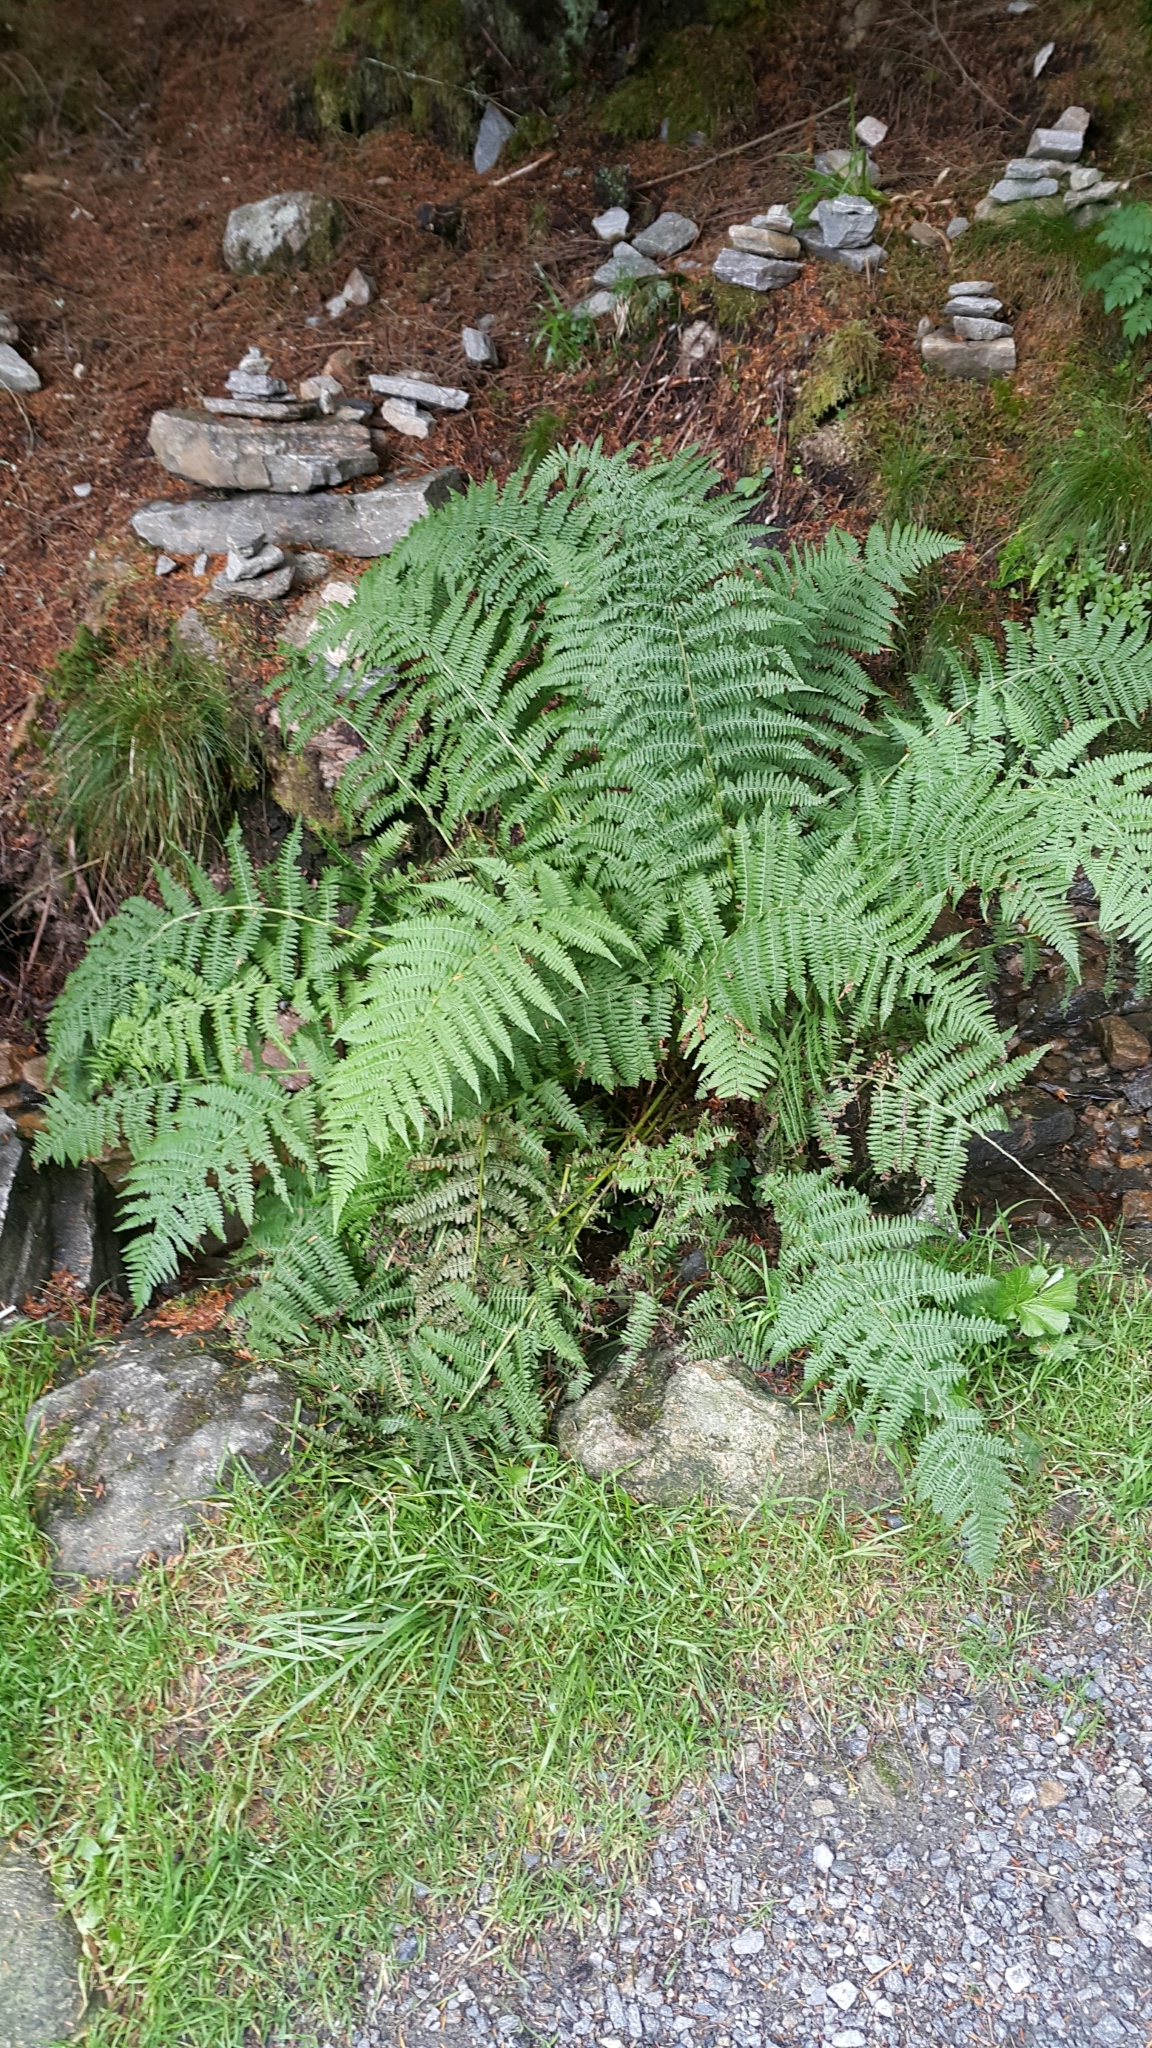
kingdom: Plantae
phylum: Tracheophyta
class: Polypodiopsida
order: Polypodiales
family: Athyriaceae
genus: Athyrium
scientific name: Athyrium filix-femina
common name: Lady fern
